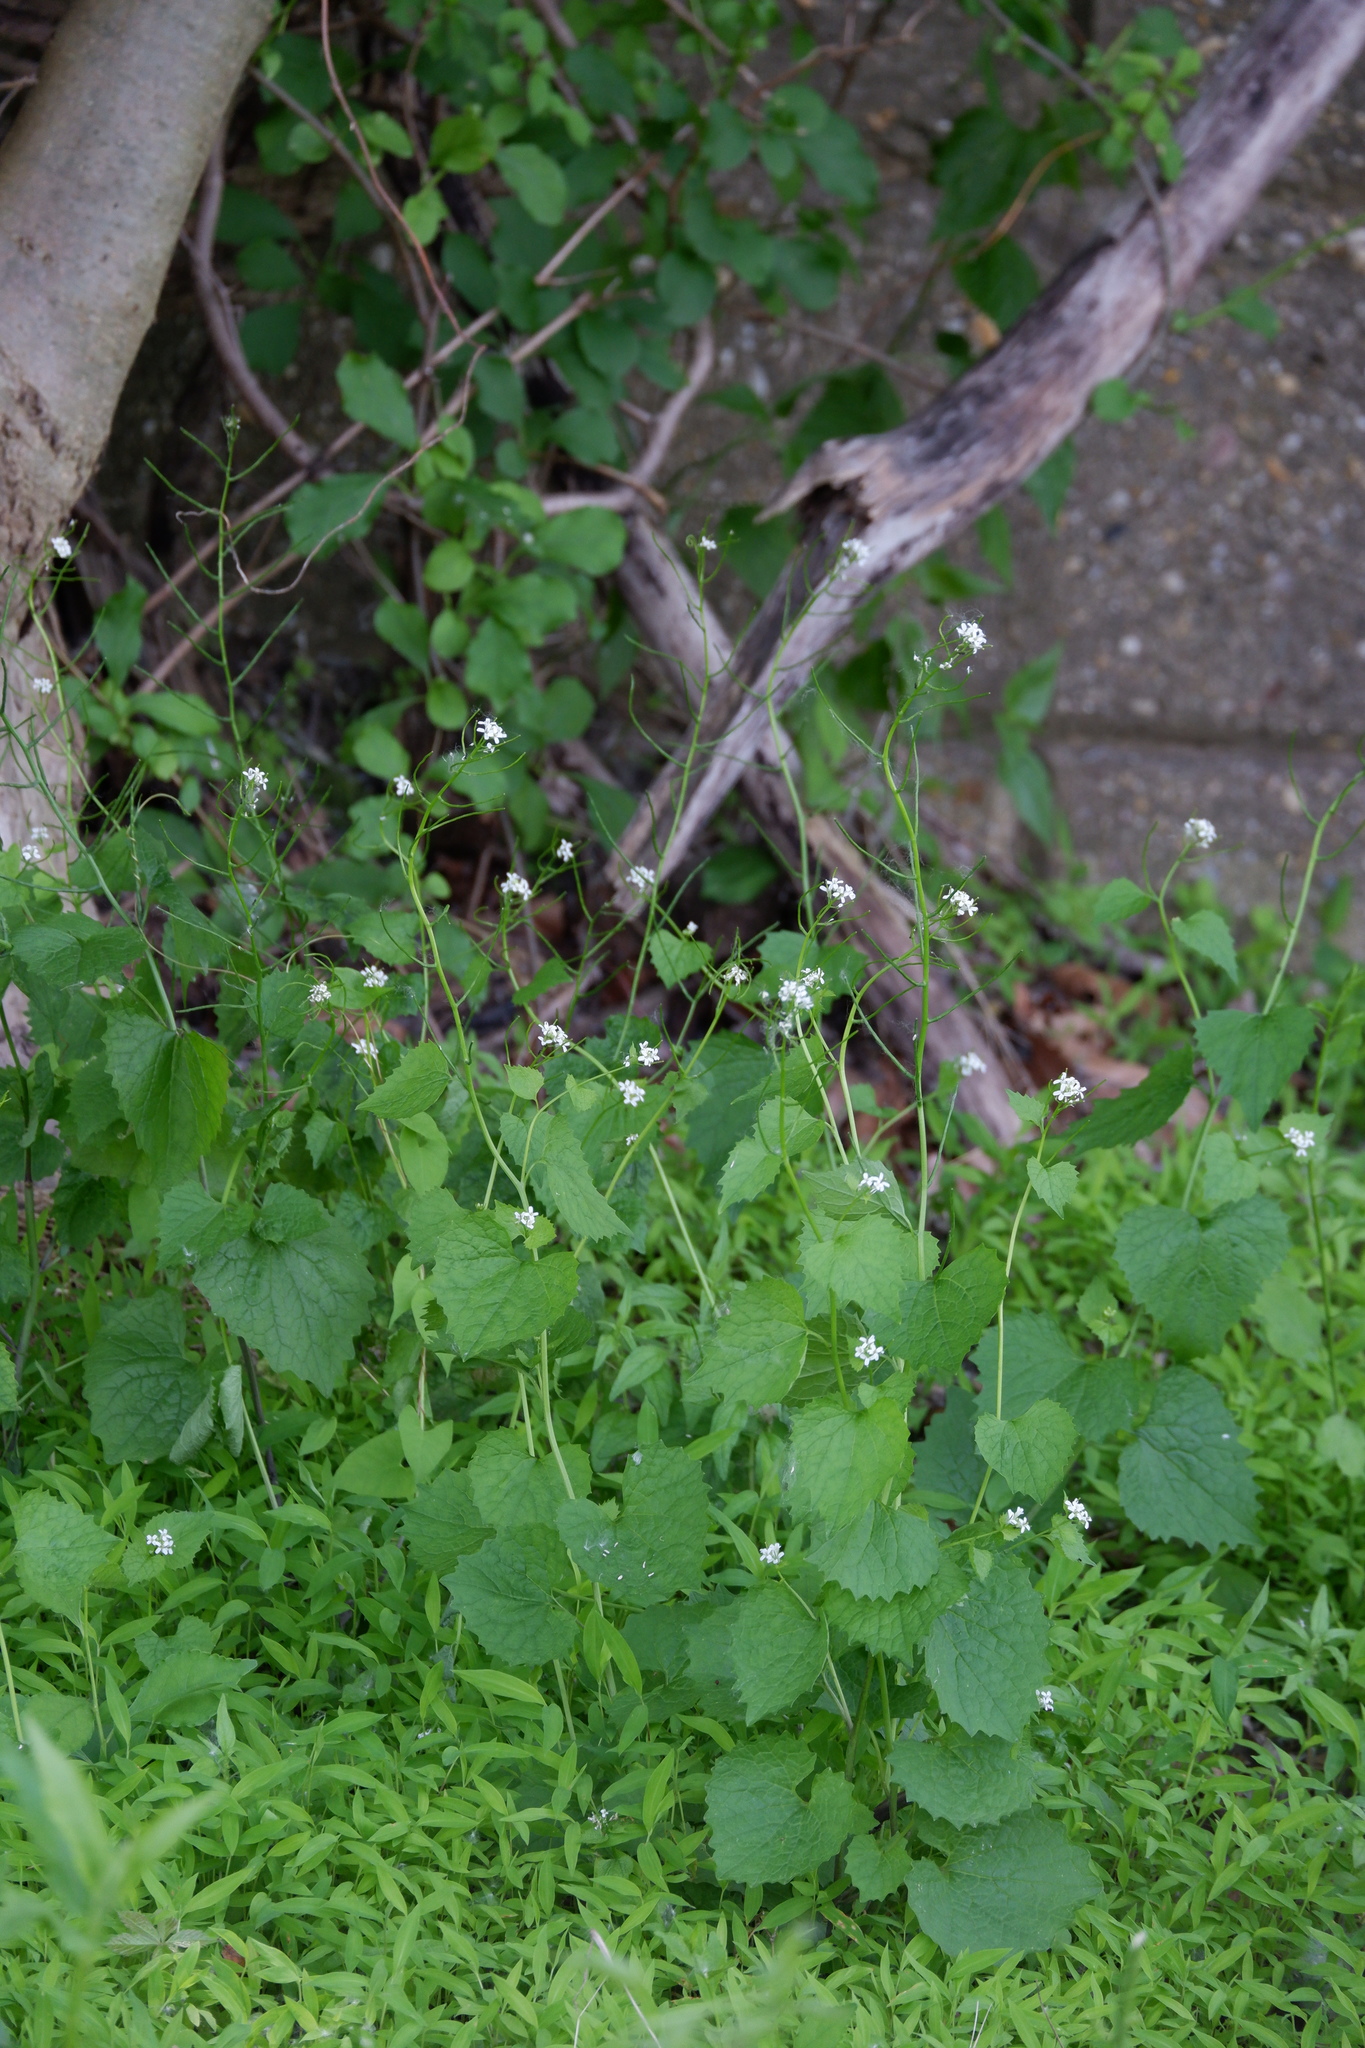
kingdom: Plantae
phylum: Tracheophyta
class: Magnoliopsida
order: Brassicales
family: Brassicaceae
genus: Alliaria
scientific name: Alliaria petiolata
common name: Garlic mustard
